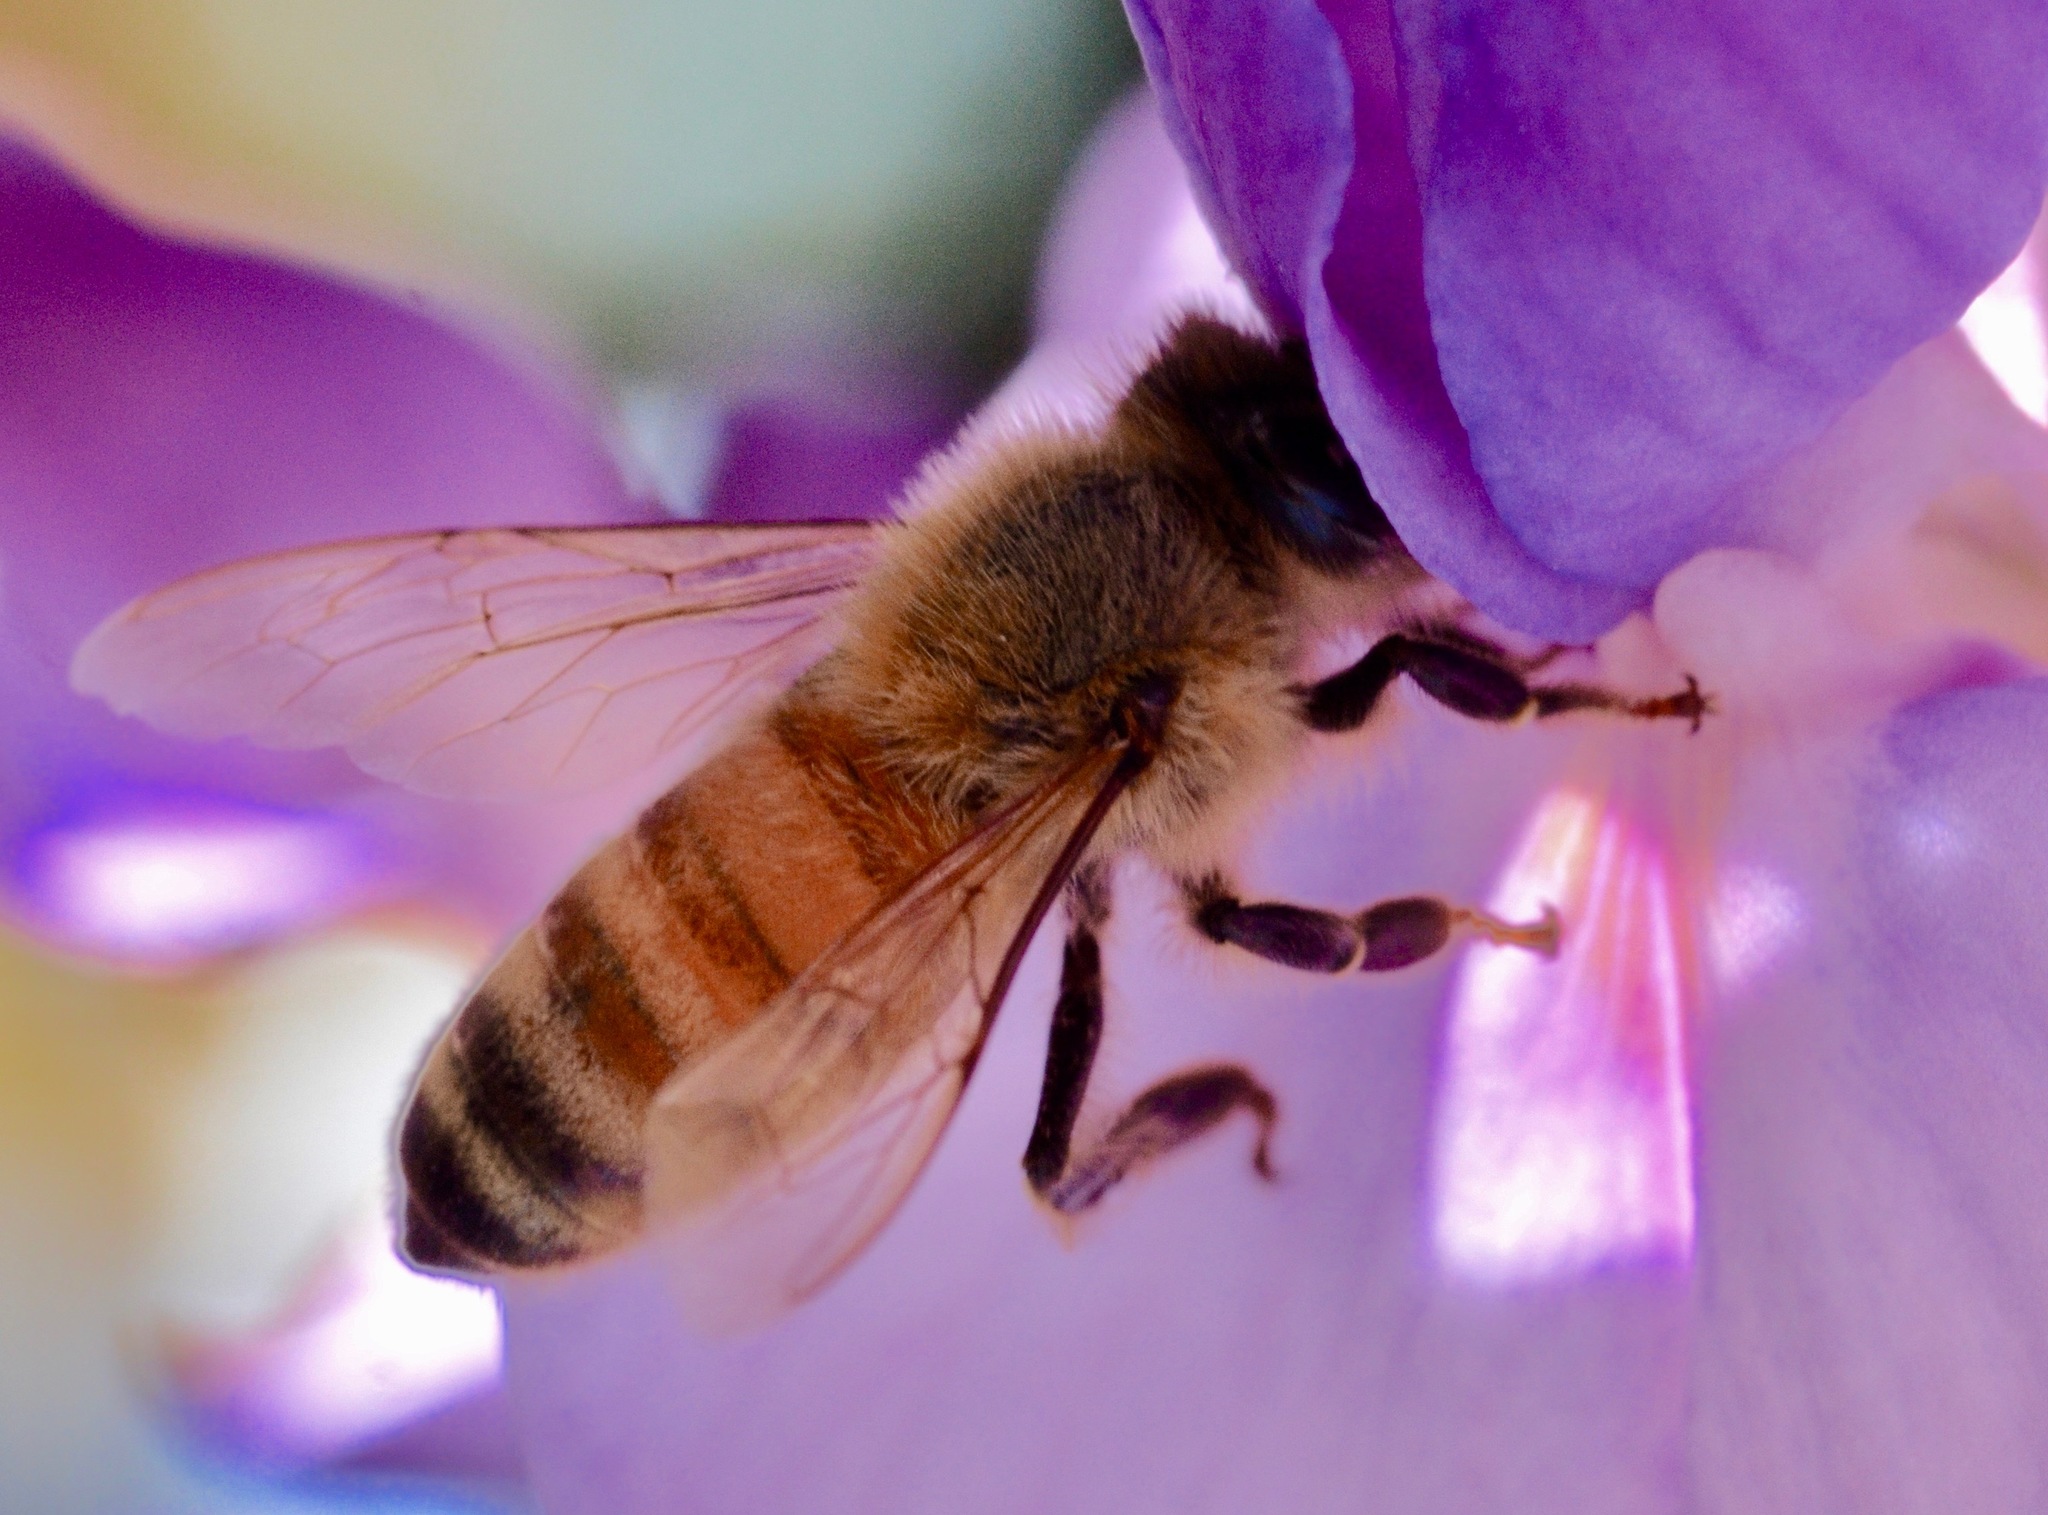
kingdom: Animalia
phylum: Arthropoda
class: Insecta
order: Hymenoptera
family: Apidae
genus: Apis
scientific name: Apis mellifera
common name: Honey bee
